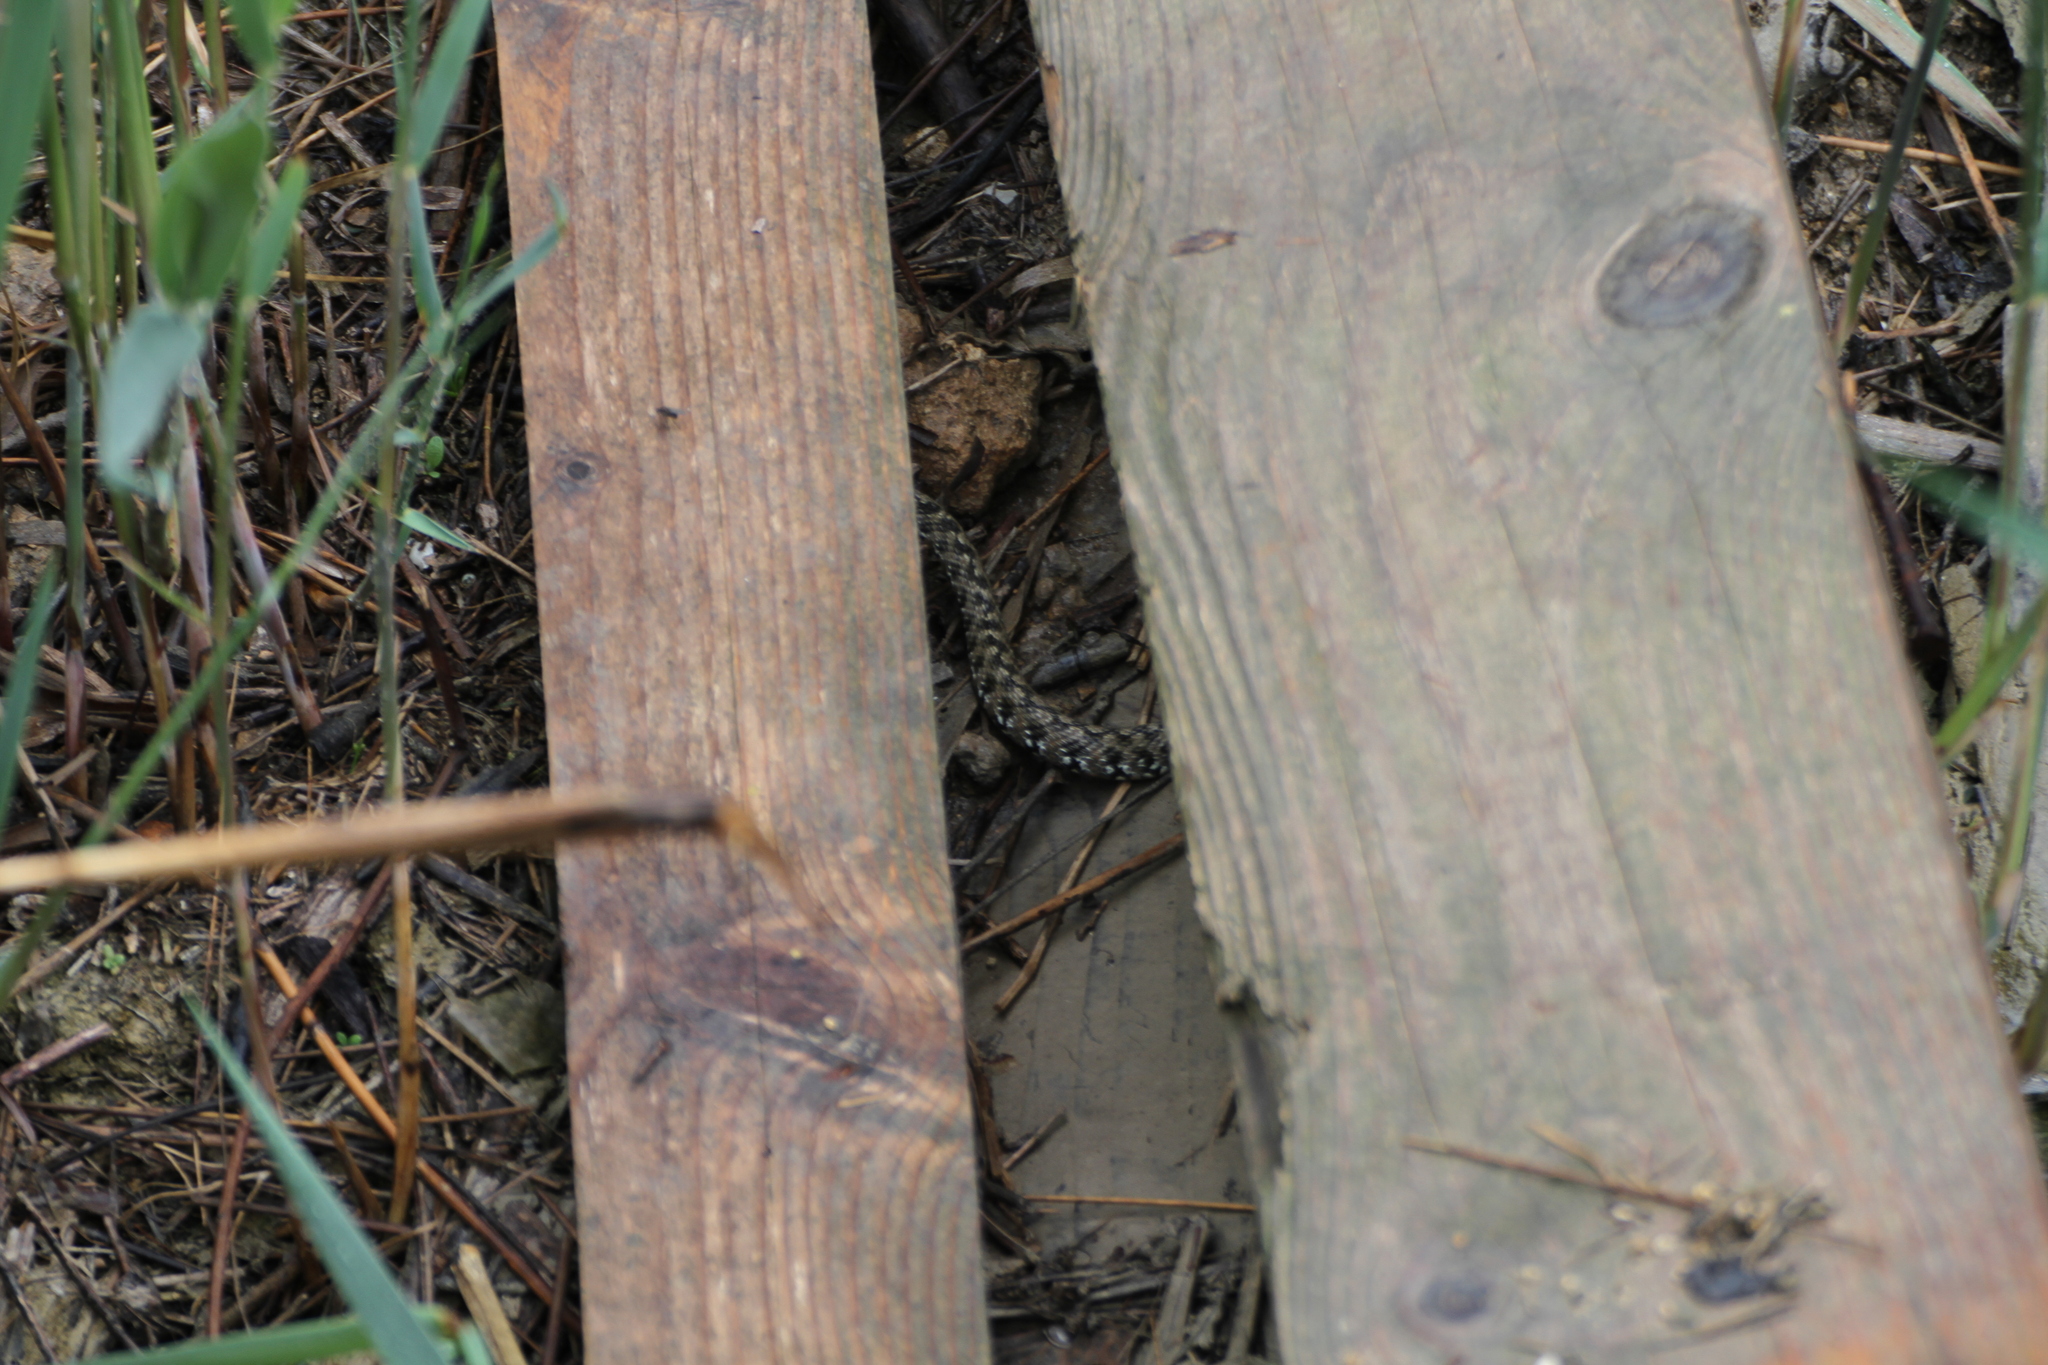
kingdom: Animalia
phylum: Chordata
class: Squamata
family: Colubridae
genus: Natrix
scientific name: Natrix maura
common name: Viperine water snake
